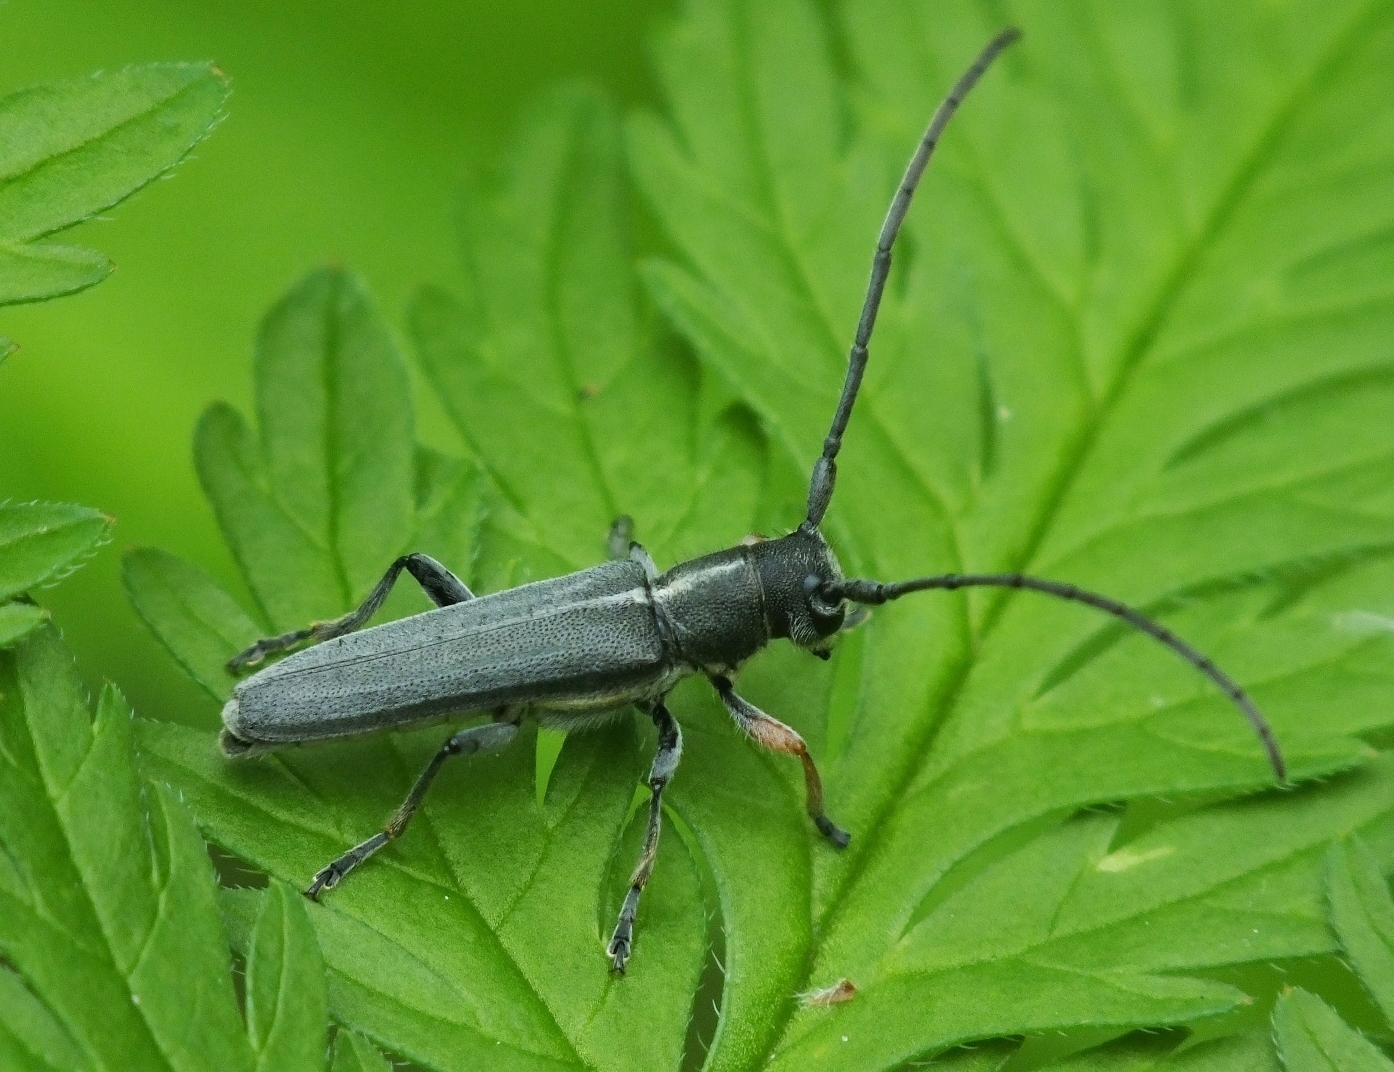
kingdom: Animalia
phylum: Arthropoda
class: Insecta
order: Coleoptera
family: Cerambycidae
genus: Phytoecia
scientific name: Phytoecia cylindrica
